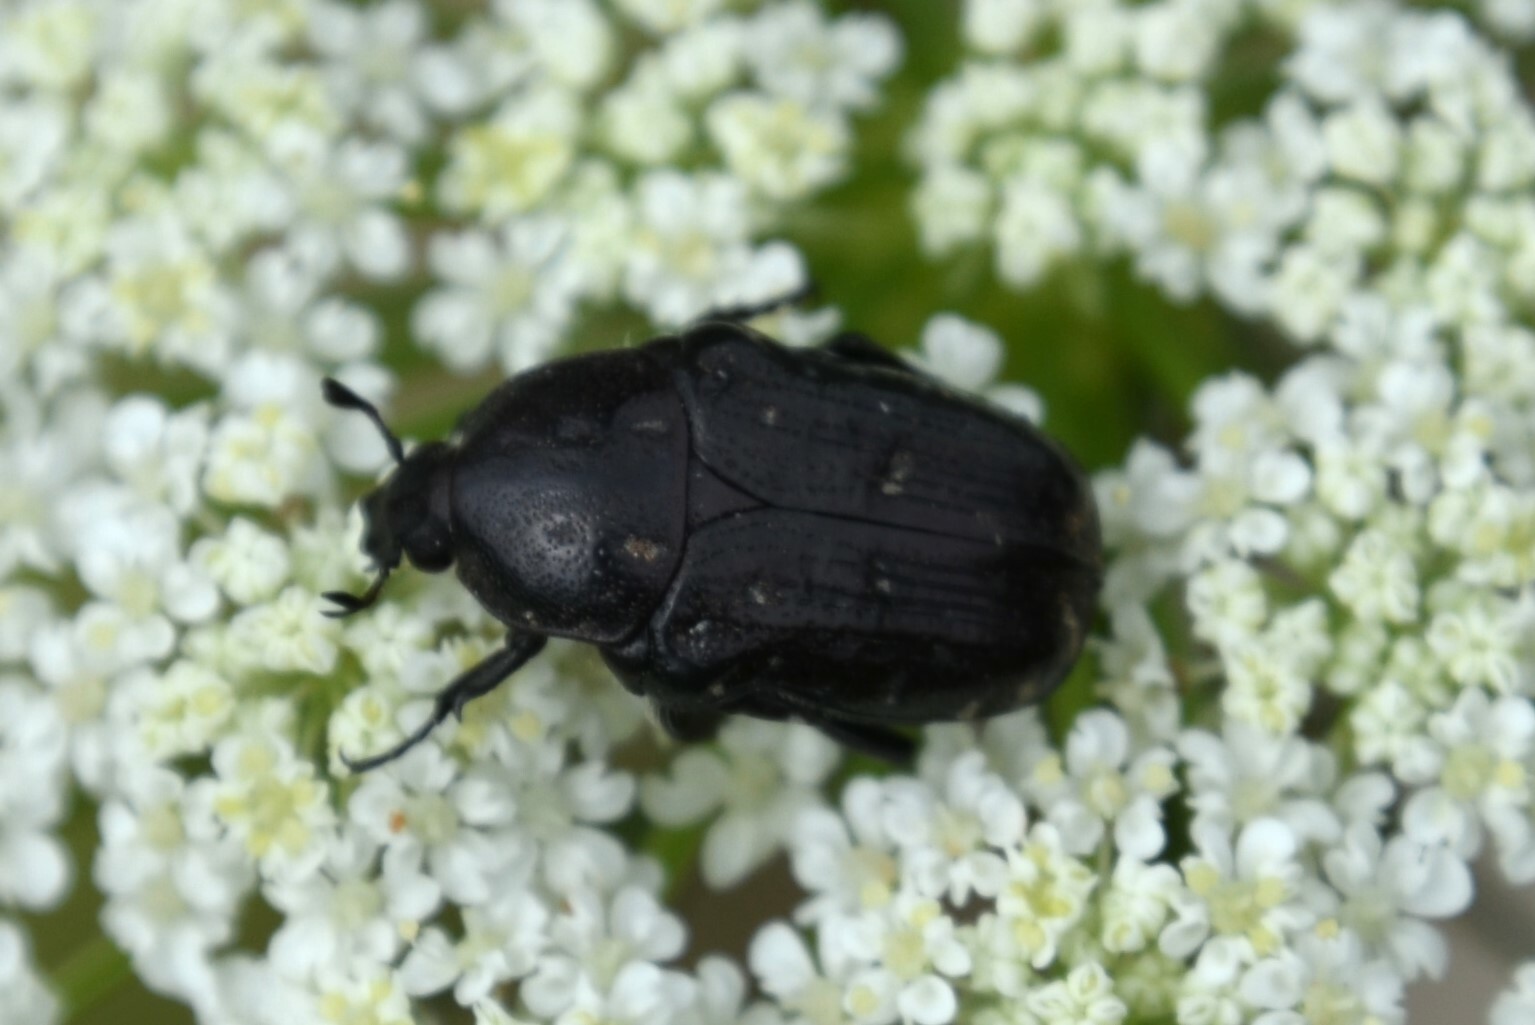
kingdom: Animalia
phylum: Arthropoda
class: Insecta
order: Coleoptera
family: Scarabaeidae
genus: Oxythyrea
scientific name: Oxythyrea funesta
